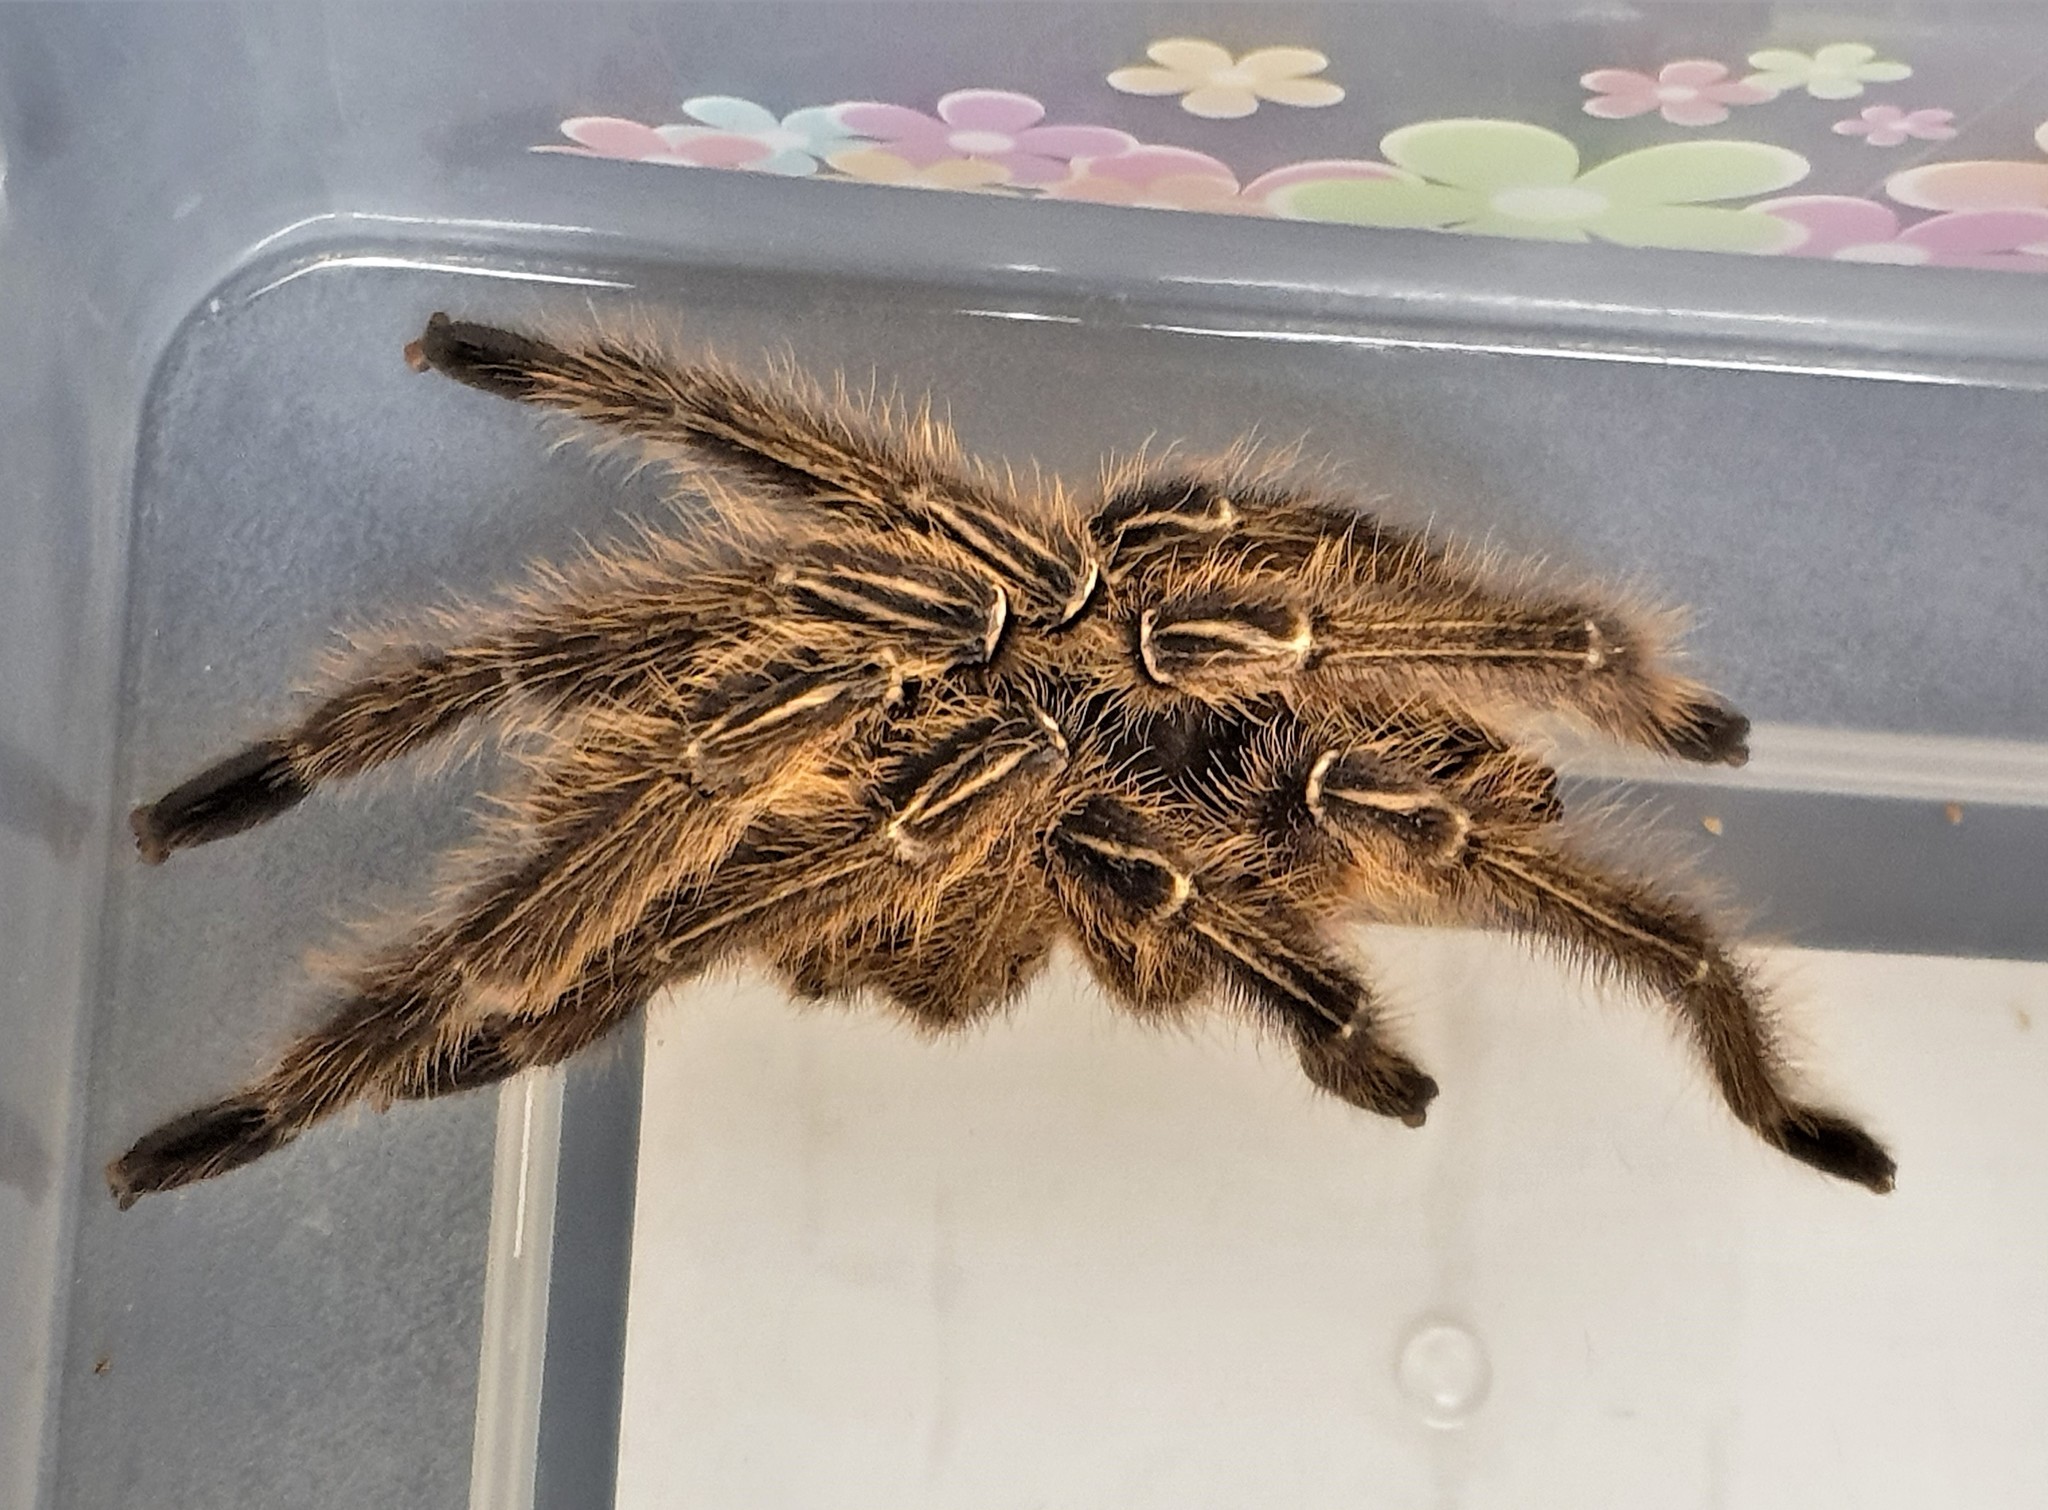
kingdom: Animalia
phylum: Arthropoda
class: Arachnida
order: Araneae
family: Theraphosidae
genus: Ephebopus
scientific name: Ephebopus murinus
